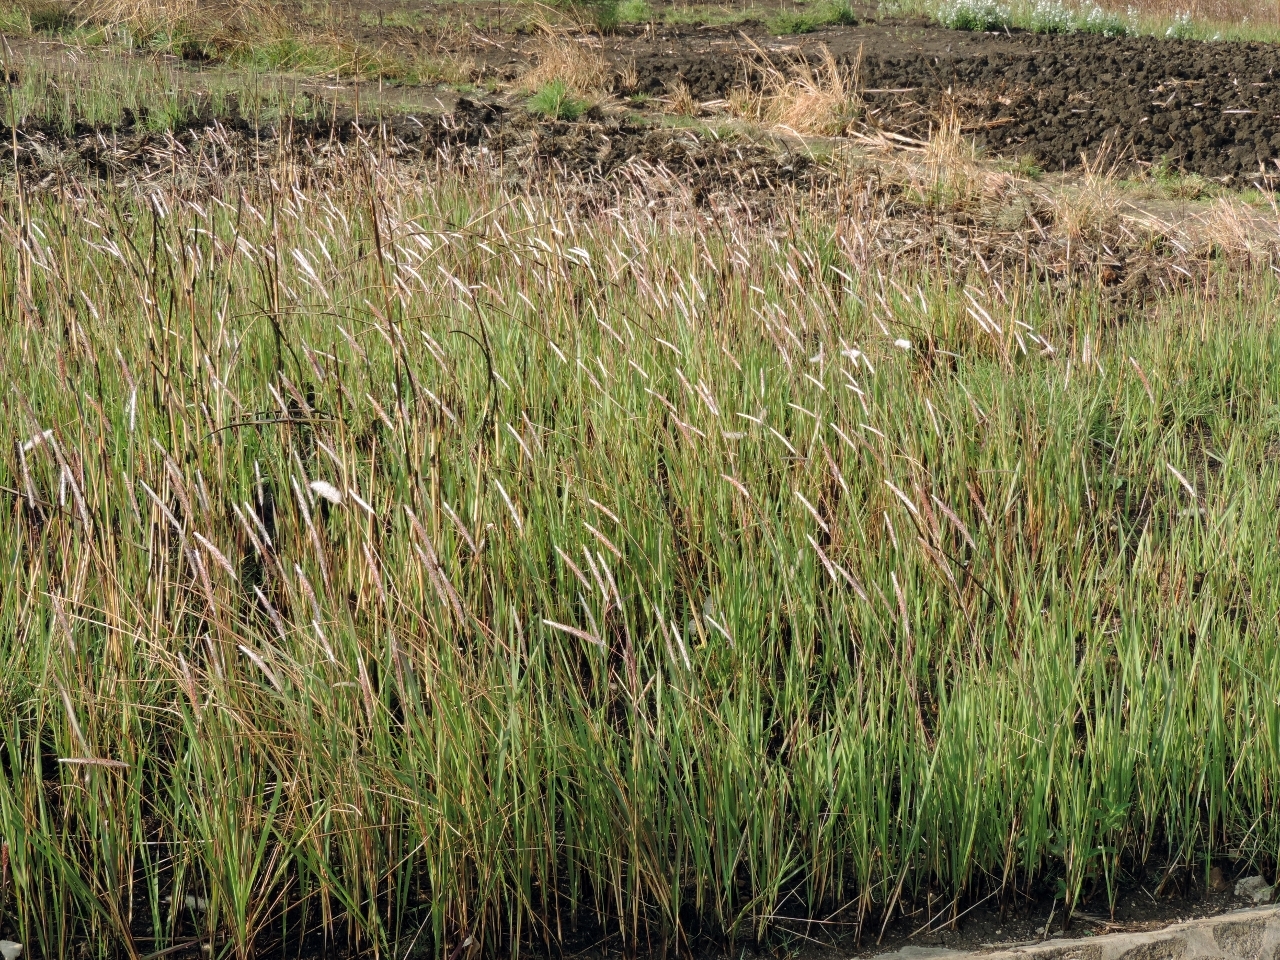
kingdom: Plantae
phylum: Tracheophyta
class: Liliopsida
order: Poales
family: Poaceae
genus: Imperata
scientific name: Imperata cylindrica
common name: Cogongrass
